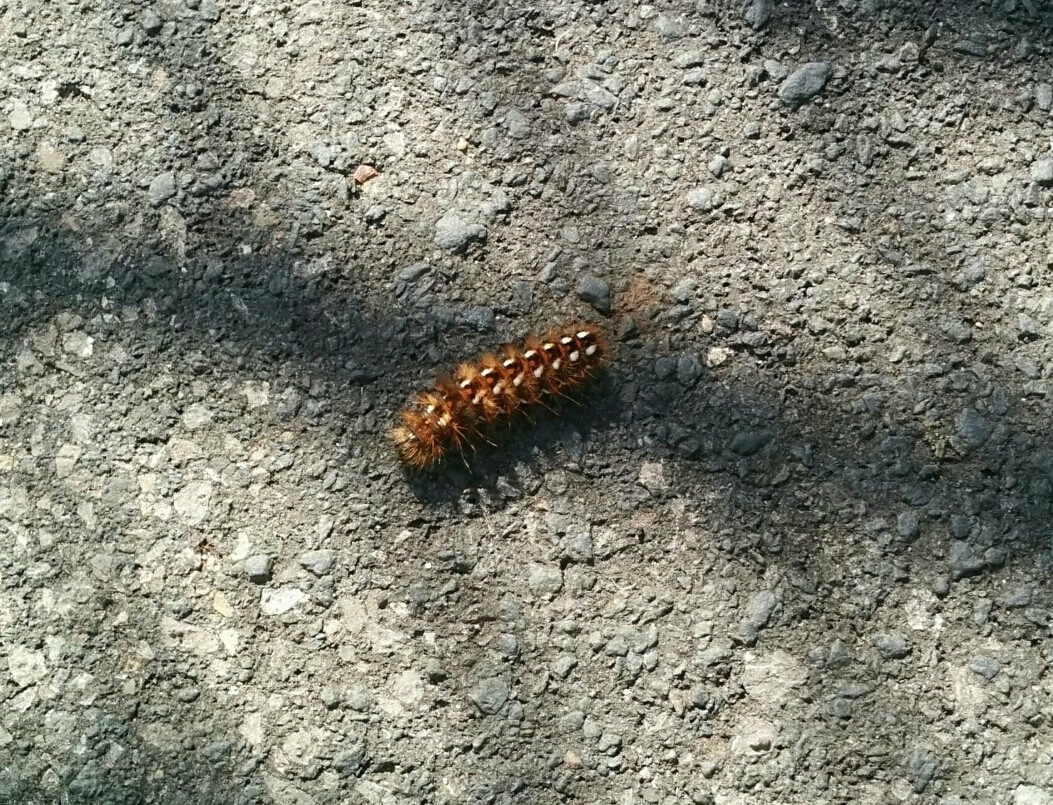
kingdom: Animalia
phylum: Arthropoda
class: Insecta
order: Lepidoptera
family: Noctuidae
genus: Acronicta
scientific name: Acronicta rumicis
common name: Knot grass
